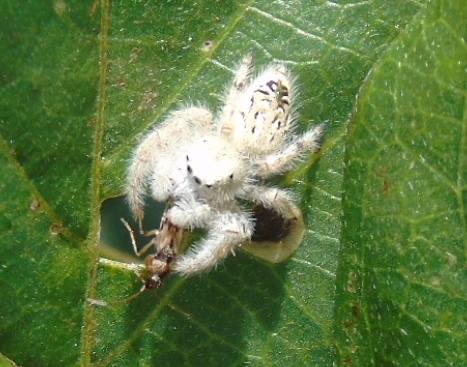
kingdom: Animalia
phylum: Arthropoda
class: Arachnida
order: Araneae
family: Salticidae
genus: Paraphidippus
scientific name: Paraphidippus fartilis
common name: Jumping spiders
